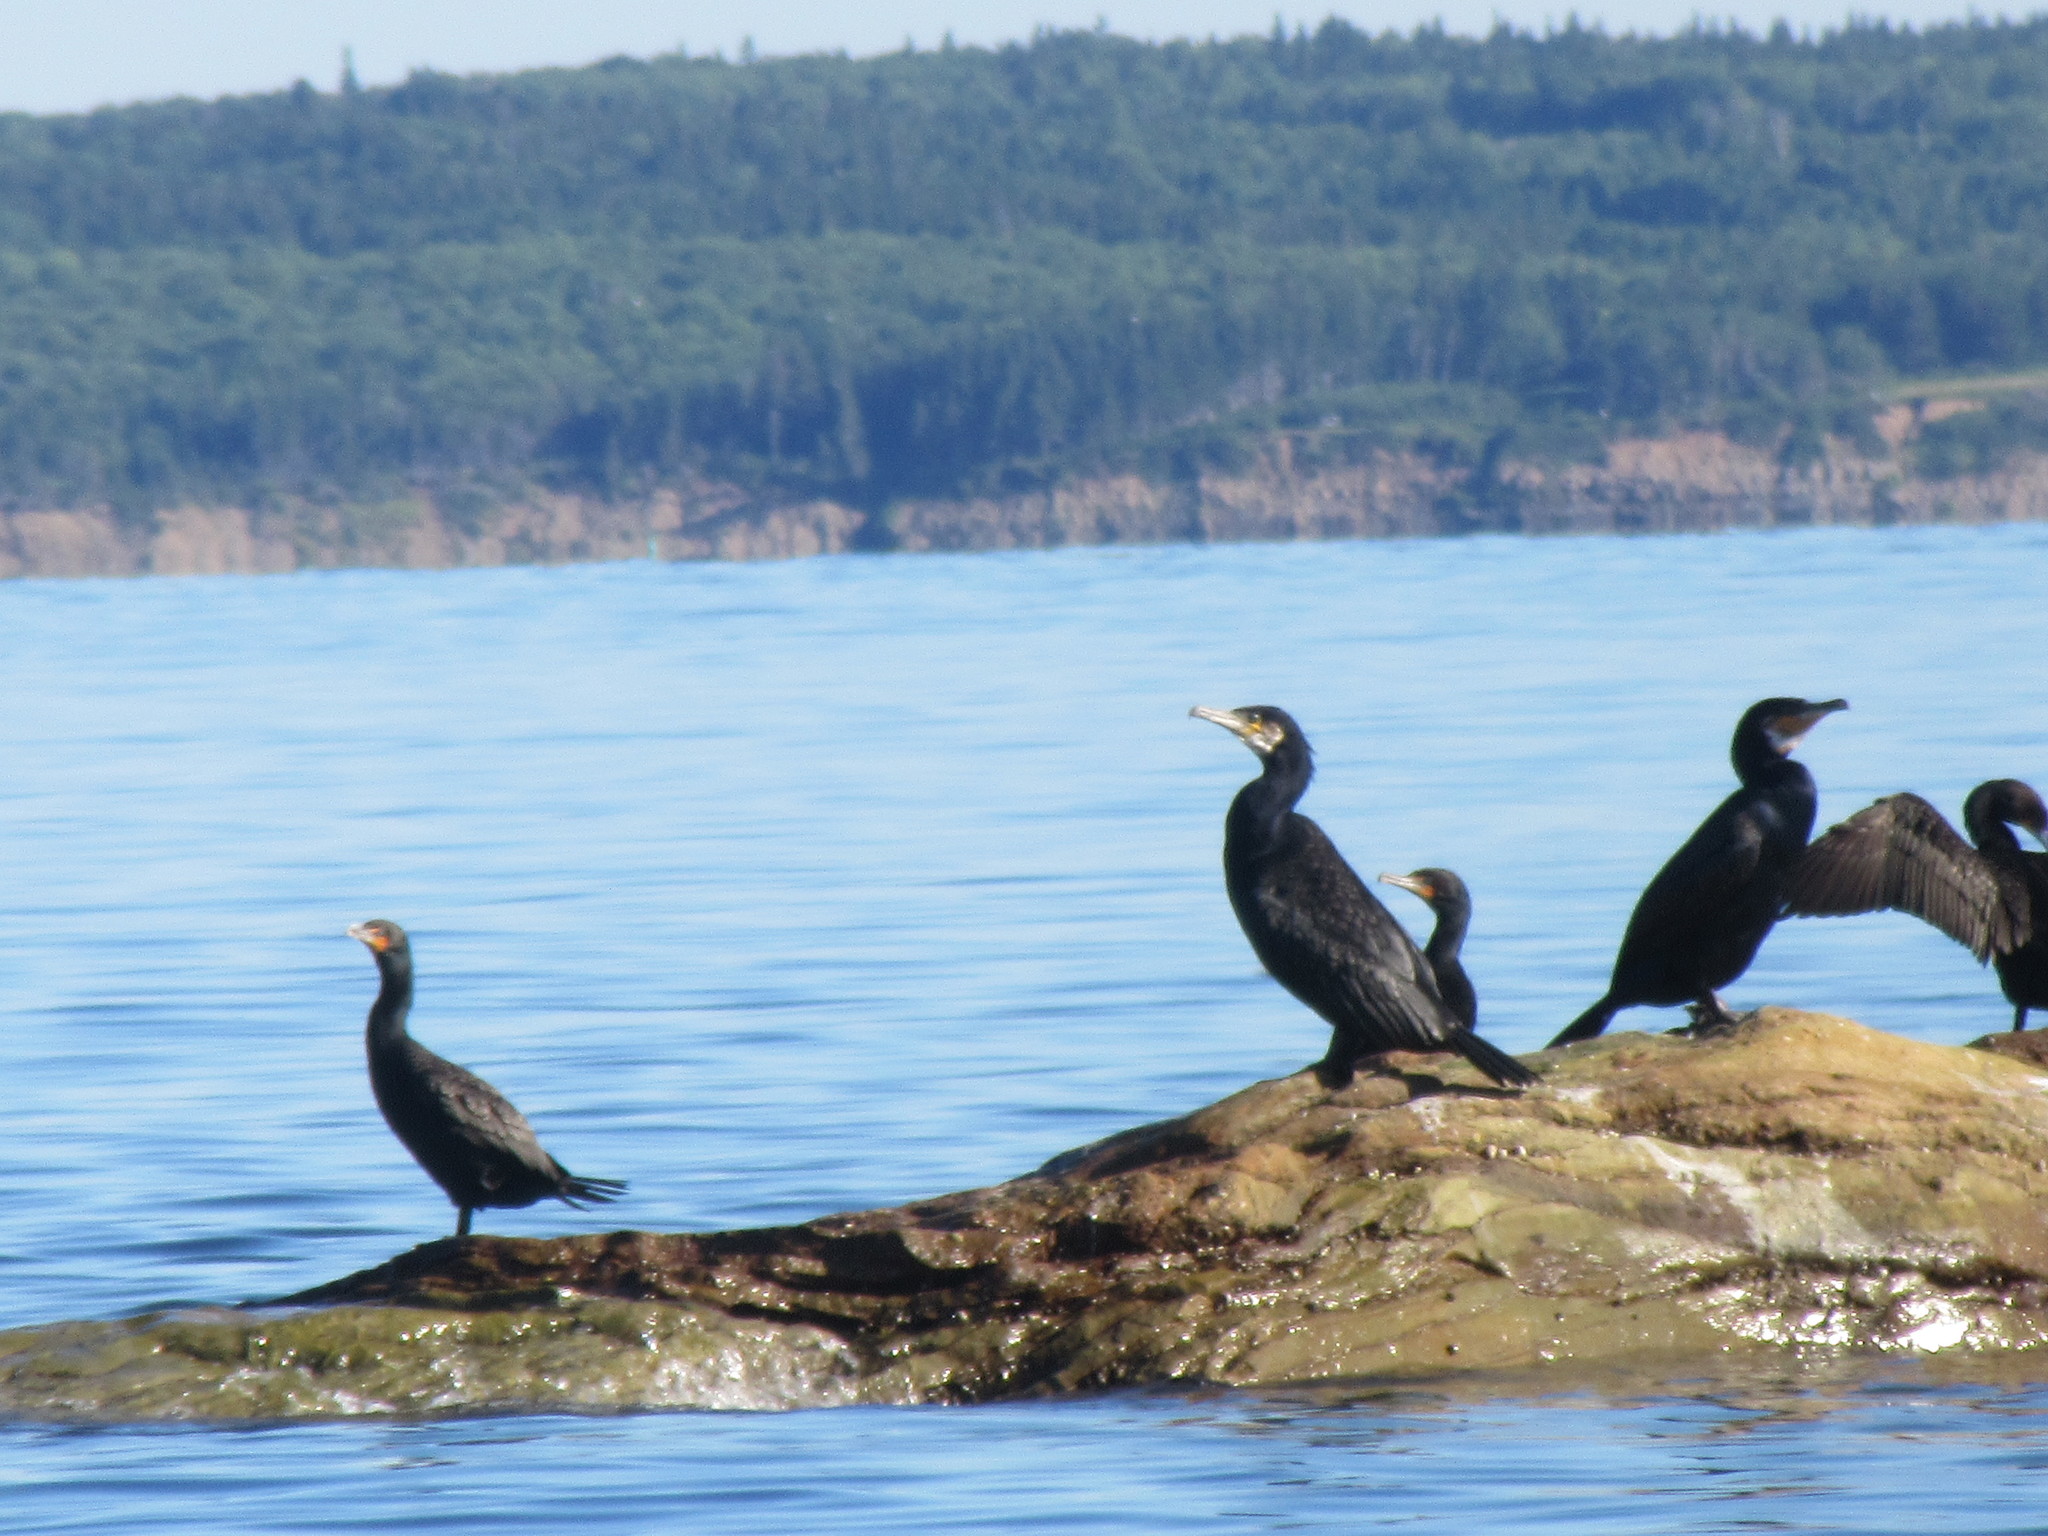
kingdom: Animalia
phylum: Chordata
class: Aves
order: Suliformes
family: Phalacrocoracidae
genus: Phalacrocorax
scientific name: Phalacrocorax carbo
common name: Great cormorant
